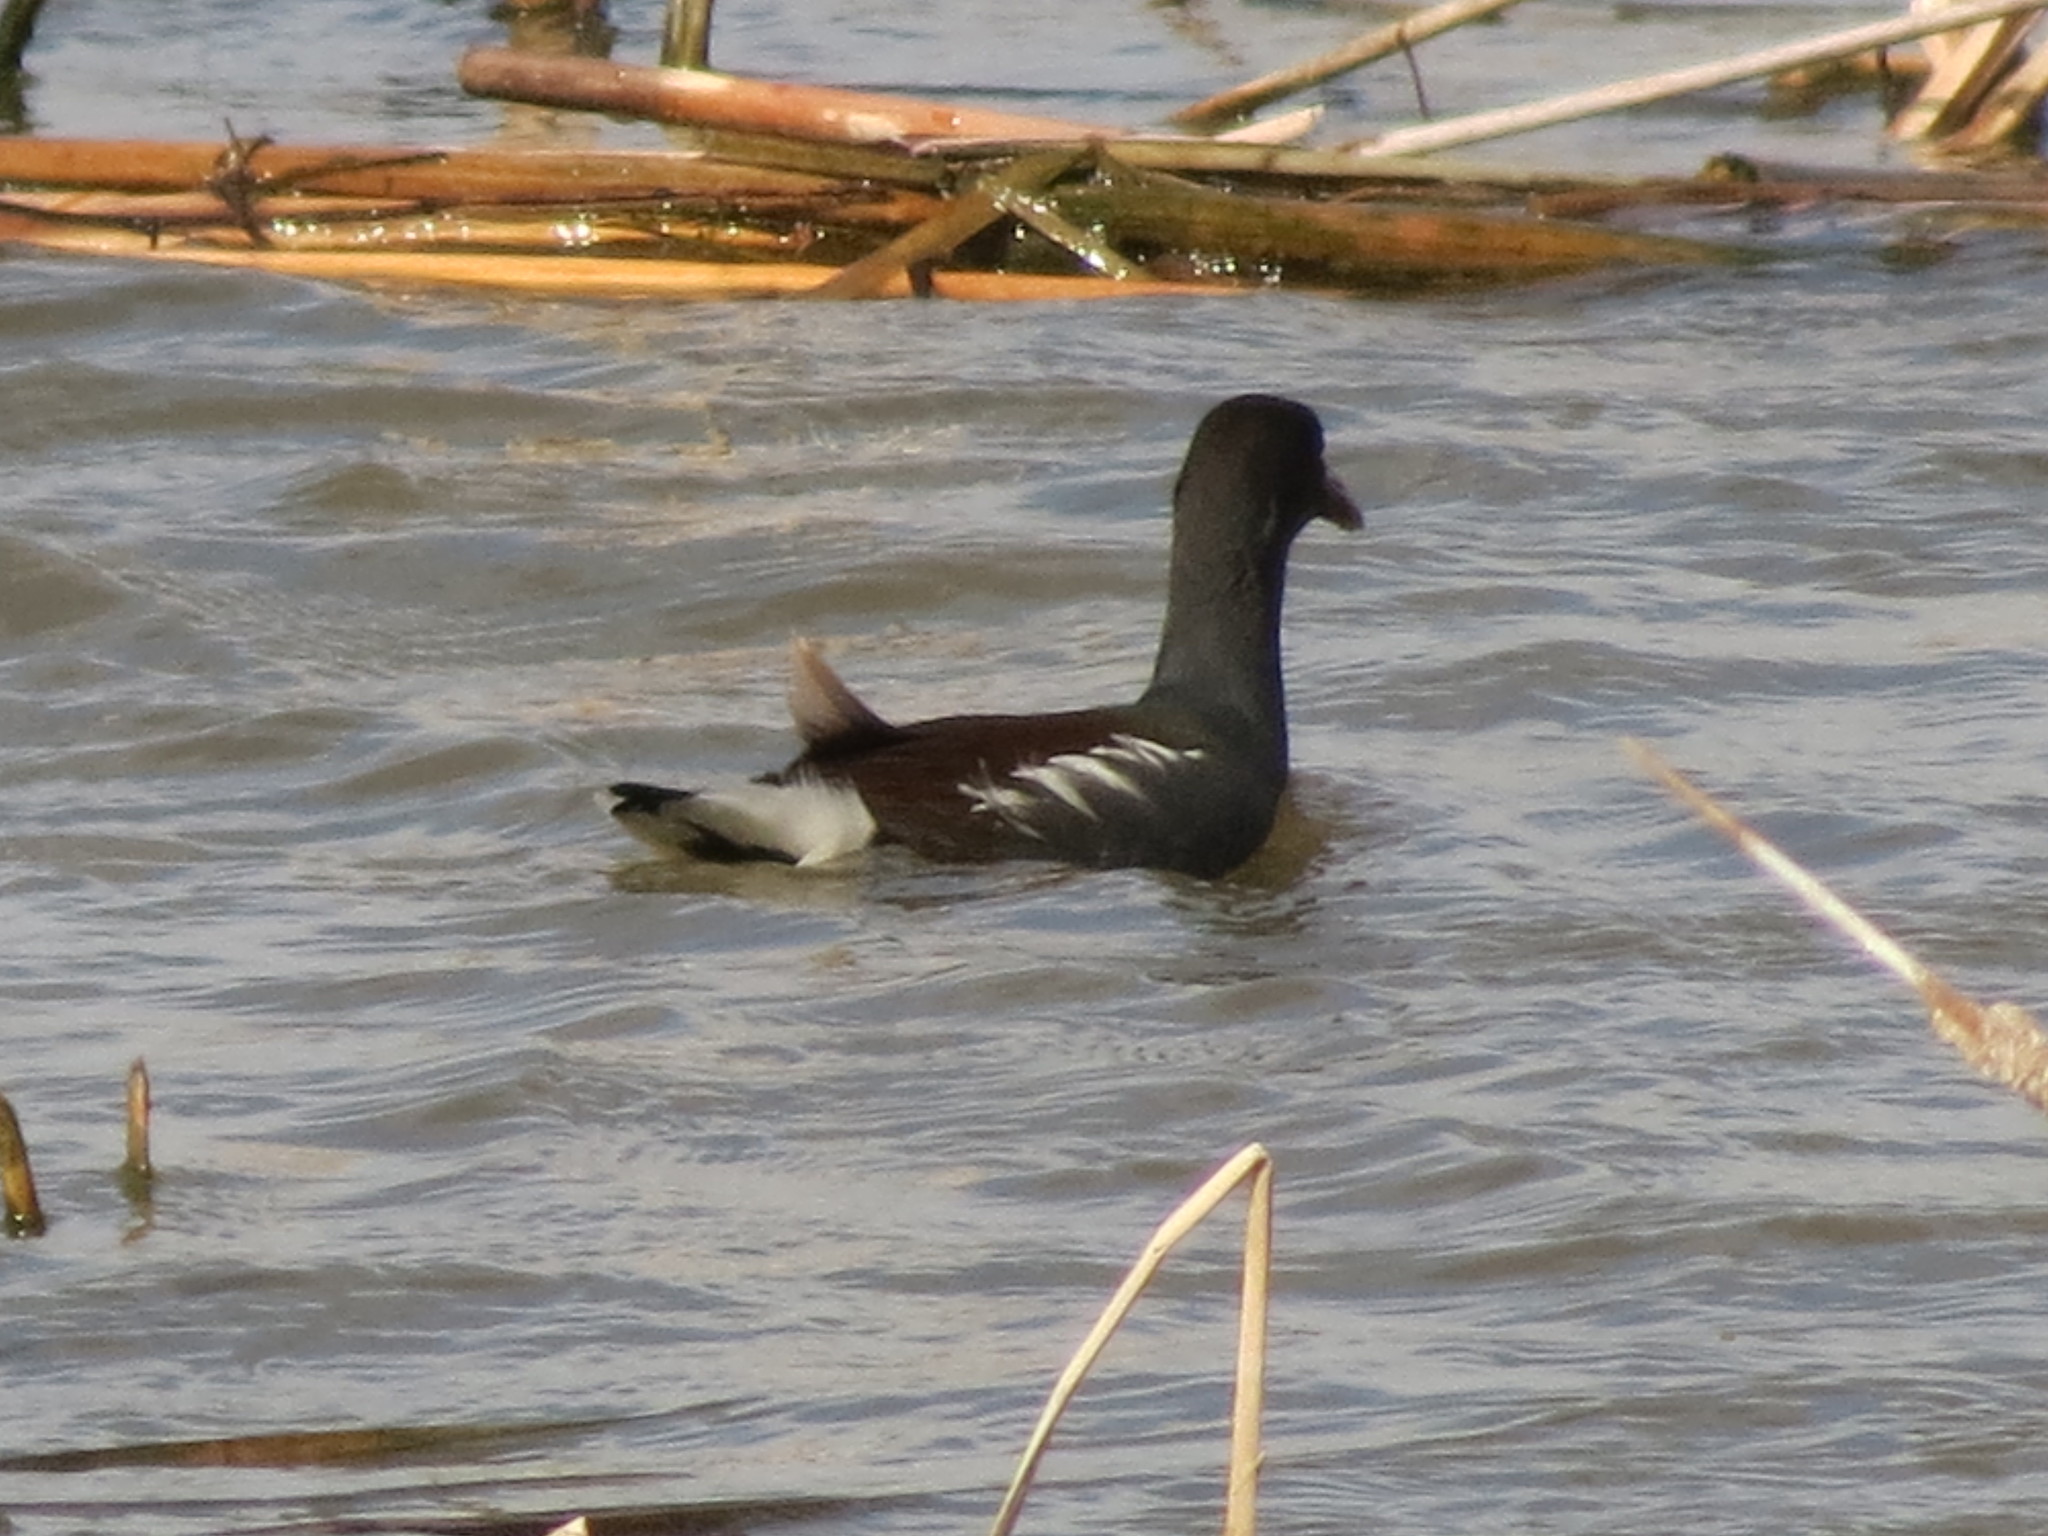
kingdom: Animalia
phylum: Chordata
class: Aves
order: Gruiformes
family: Rallidae
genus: Gallinula
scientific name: Gallinula chloropus
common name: Common moorhen
